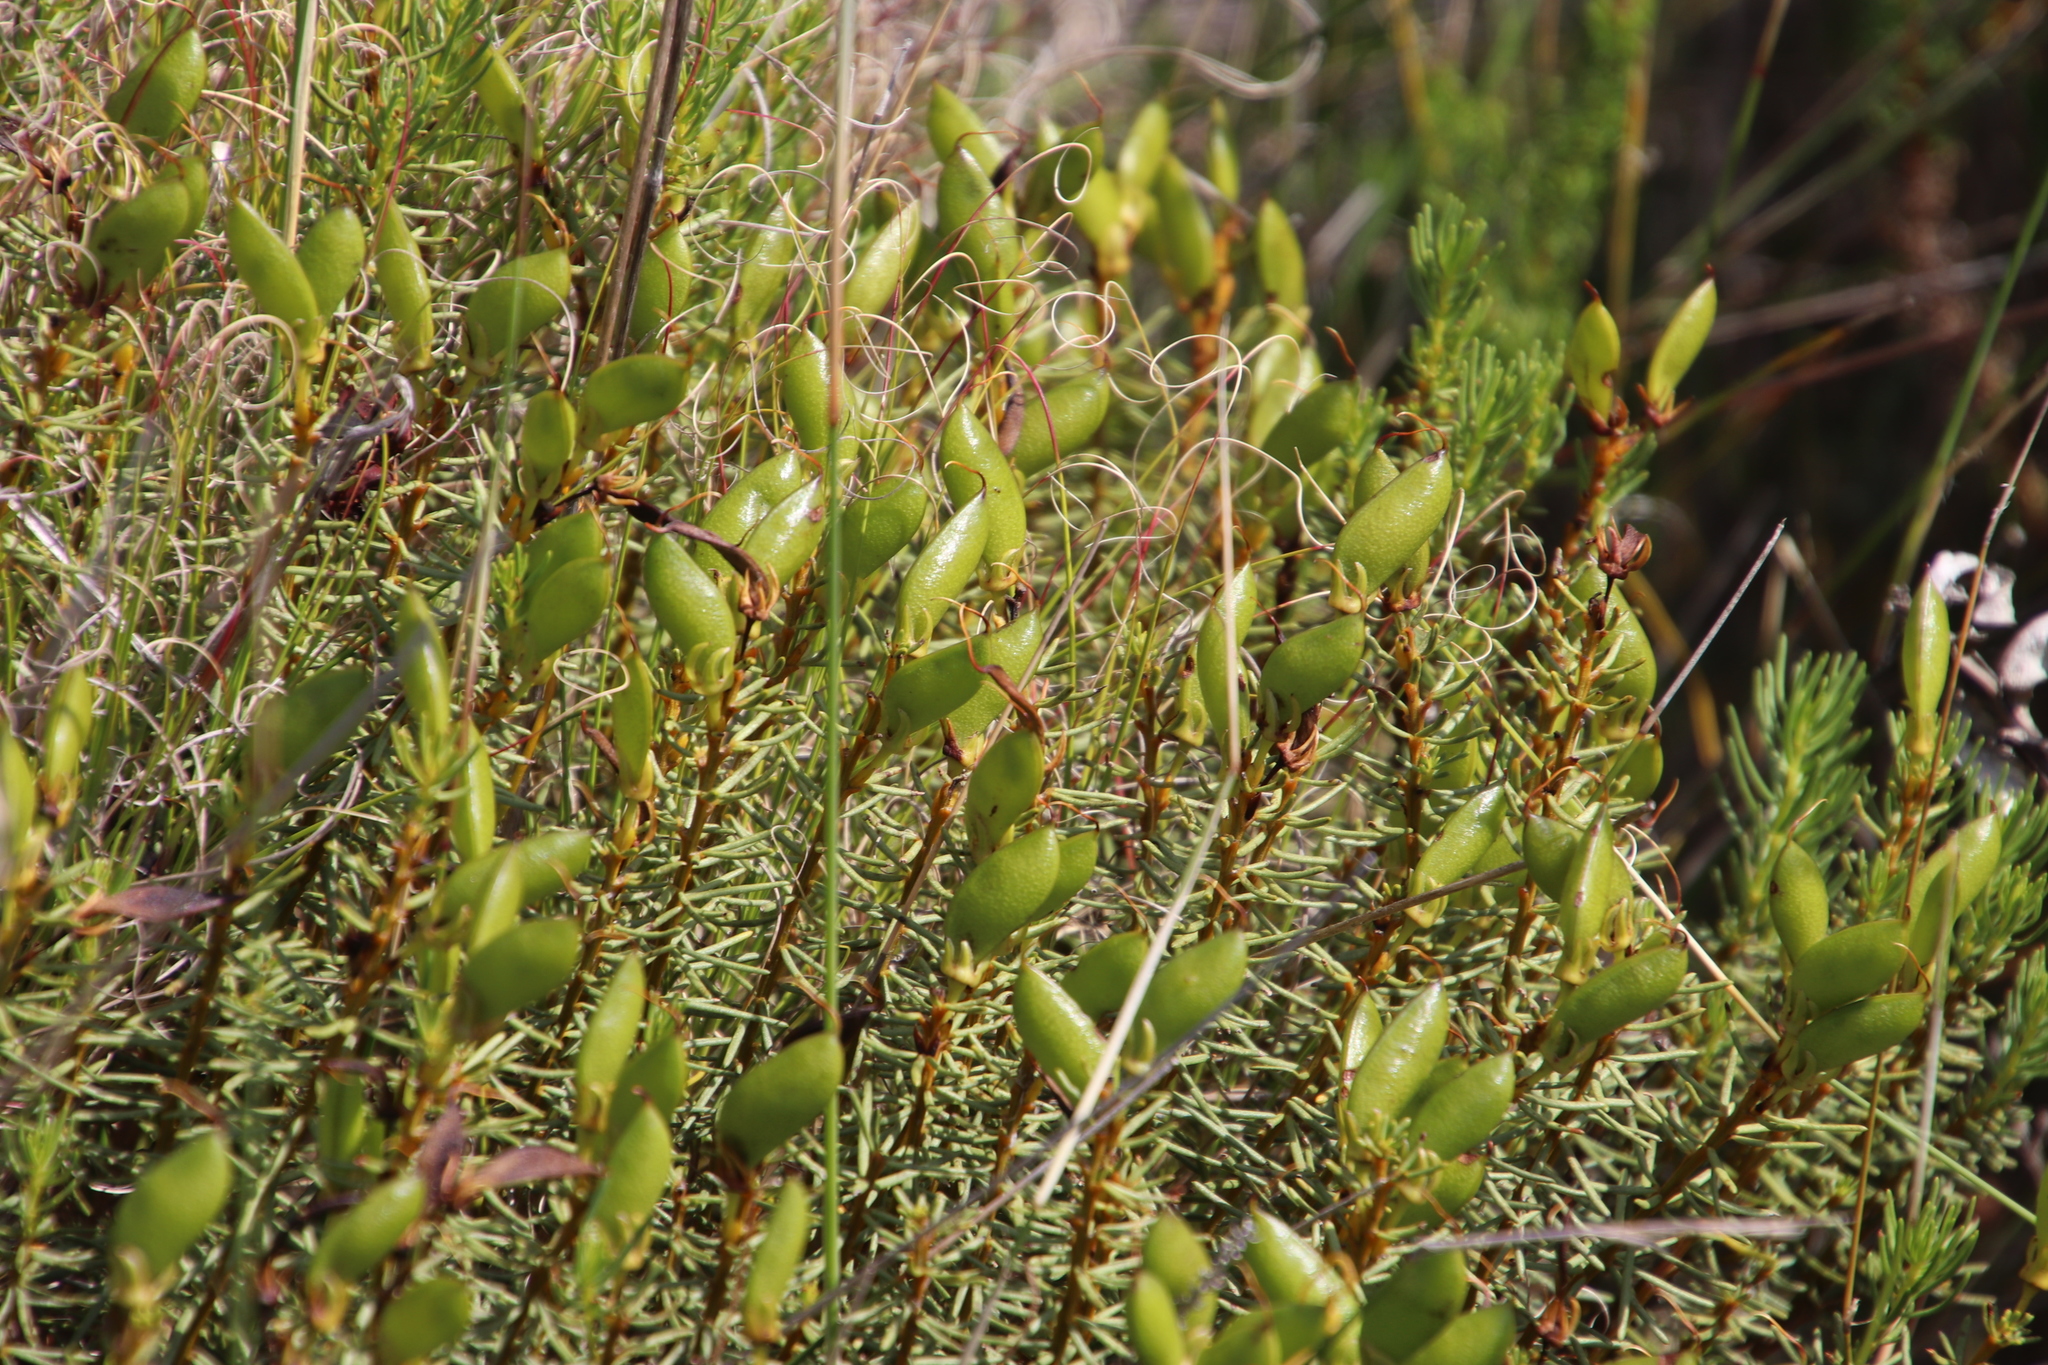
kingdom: Plantae
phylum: Tracheophyta
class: Magnoliopsida
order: Fabales
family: Fabaceae
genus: Cyclopia
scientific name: Cyclopia genistoides
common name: Honeybush tea
